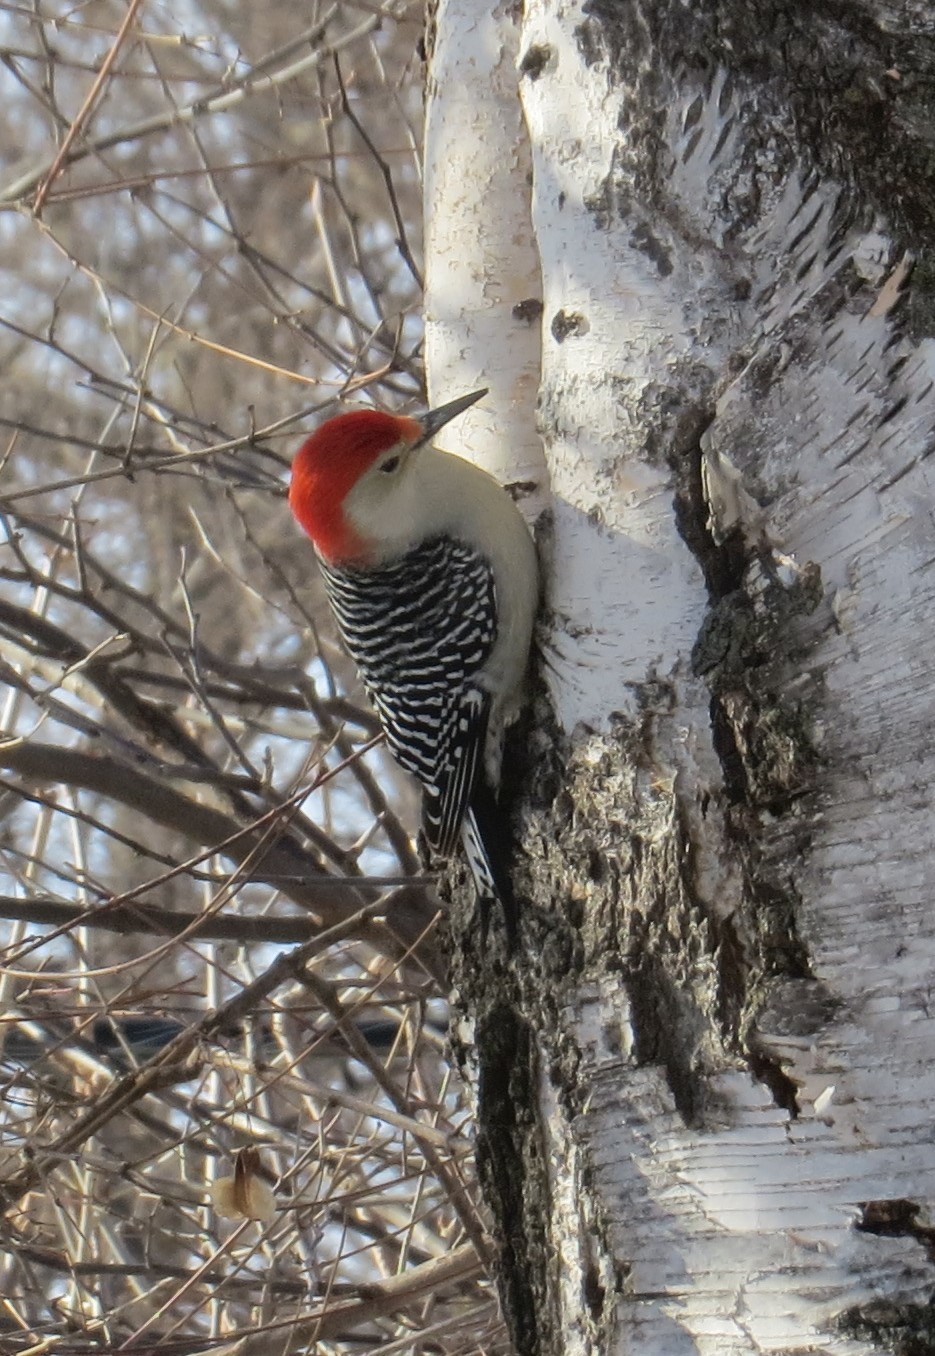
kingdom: Animalia
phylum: Chordata
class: Aves
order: Piciformes
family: Picidae
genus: Melanerpes
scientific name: Melanerpes carolinus
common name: Red-bellied woodpecker
